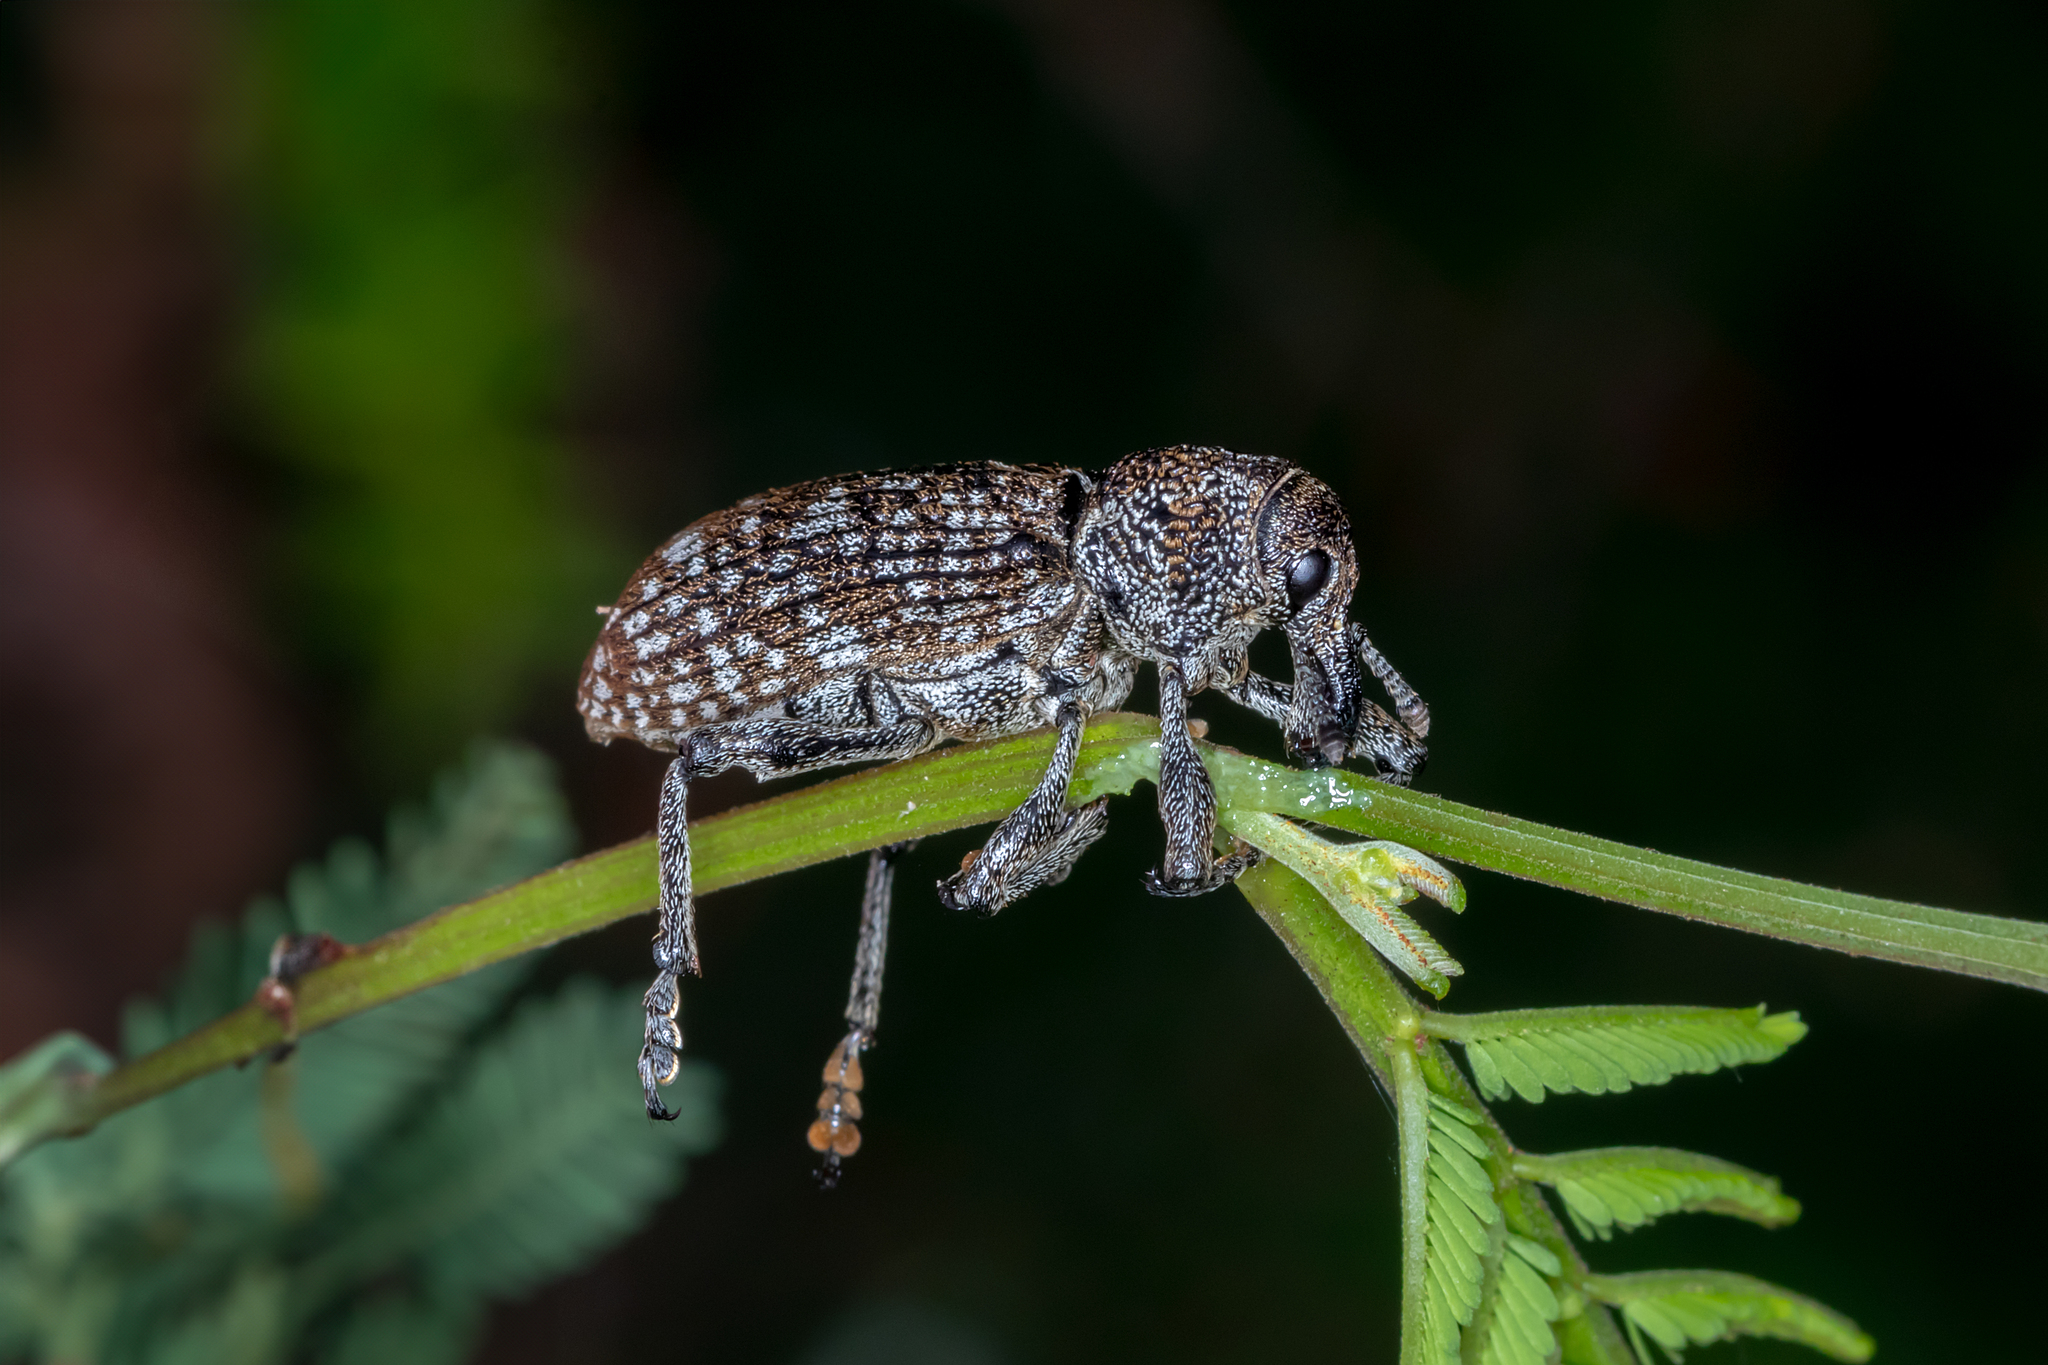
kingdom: Animalia
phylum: Arthropoda
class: Insecta
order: Coleoptera
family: Curculionidae
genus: Chrysolopus
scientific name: Chrysolopus spectabilis
